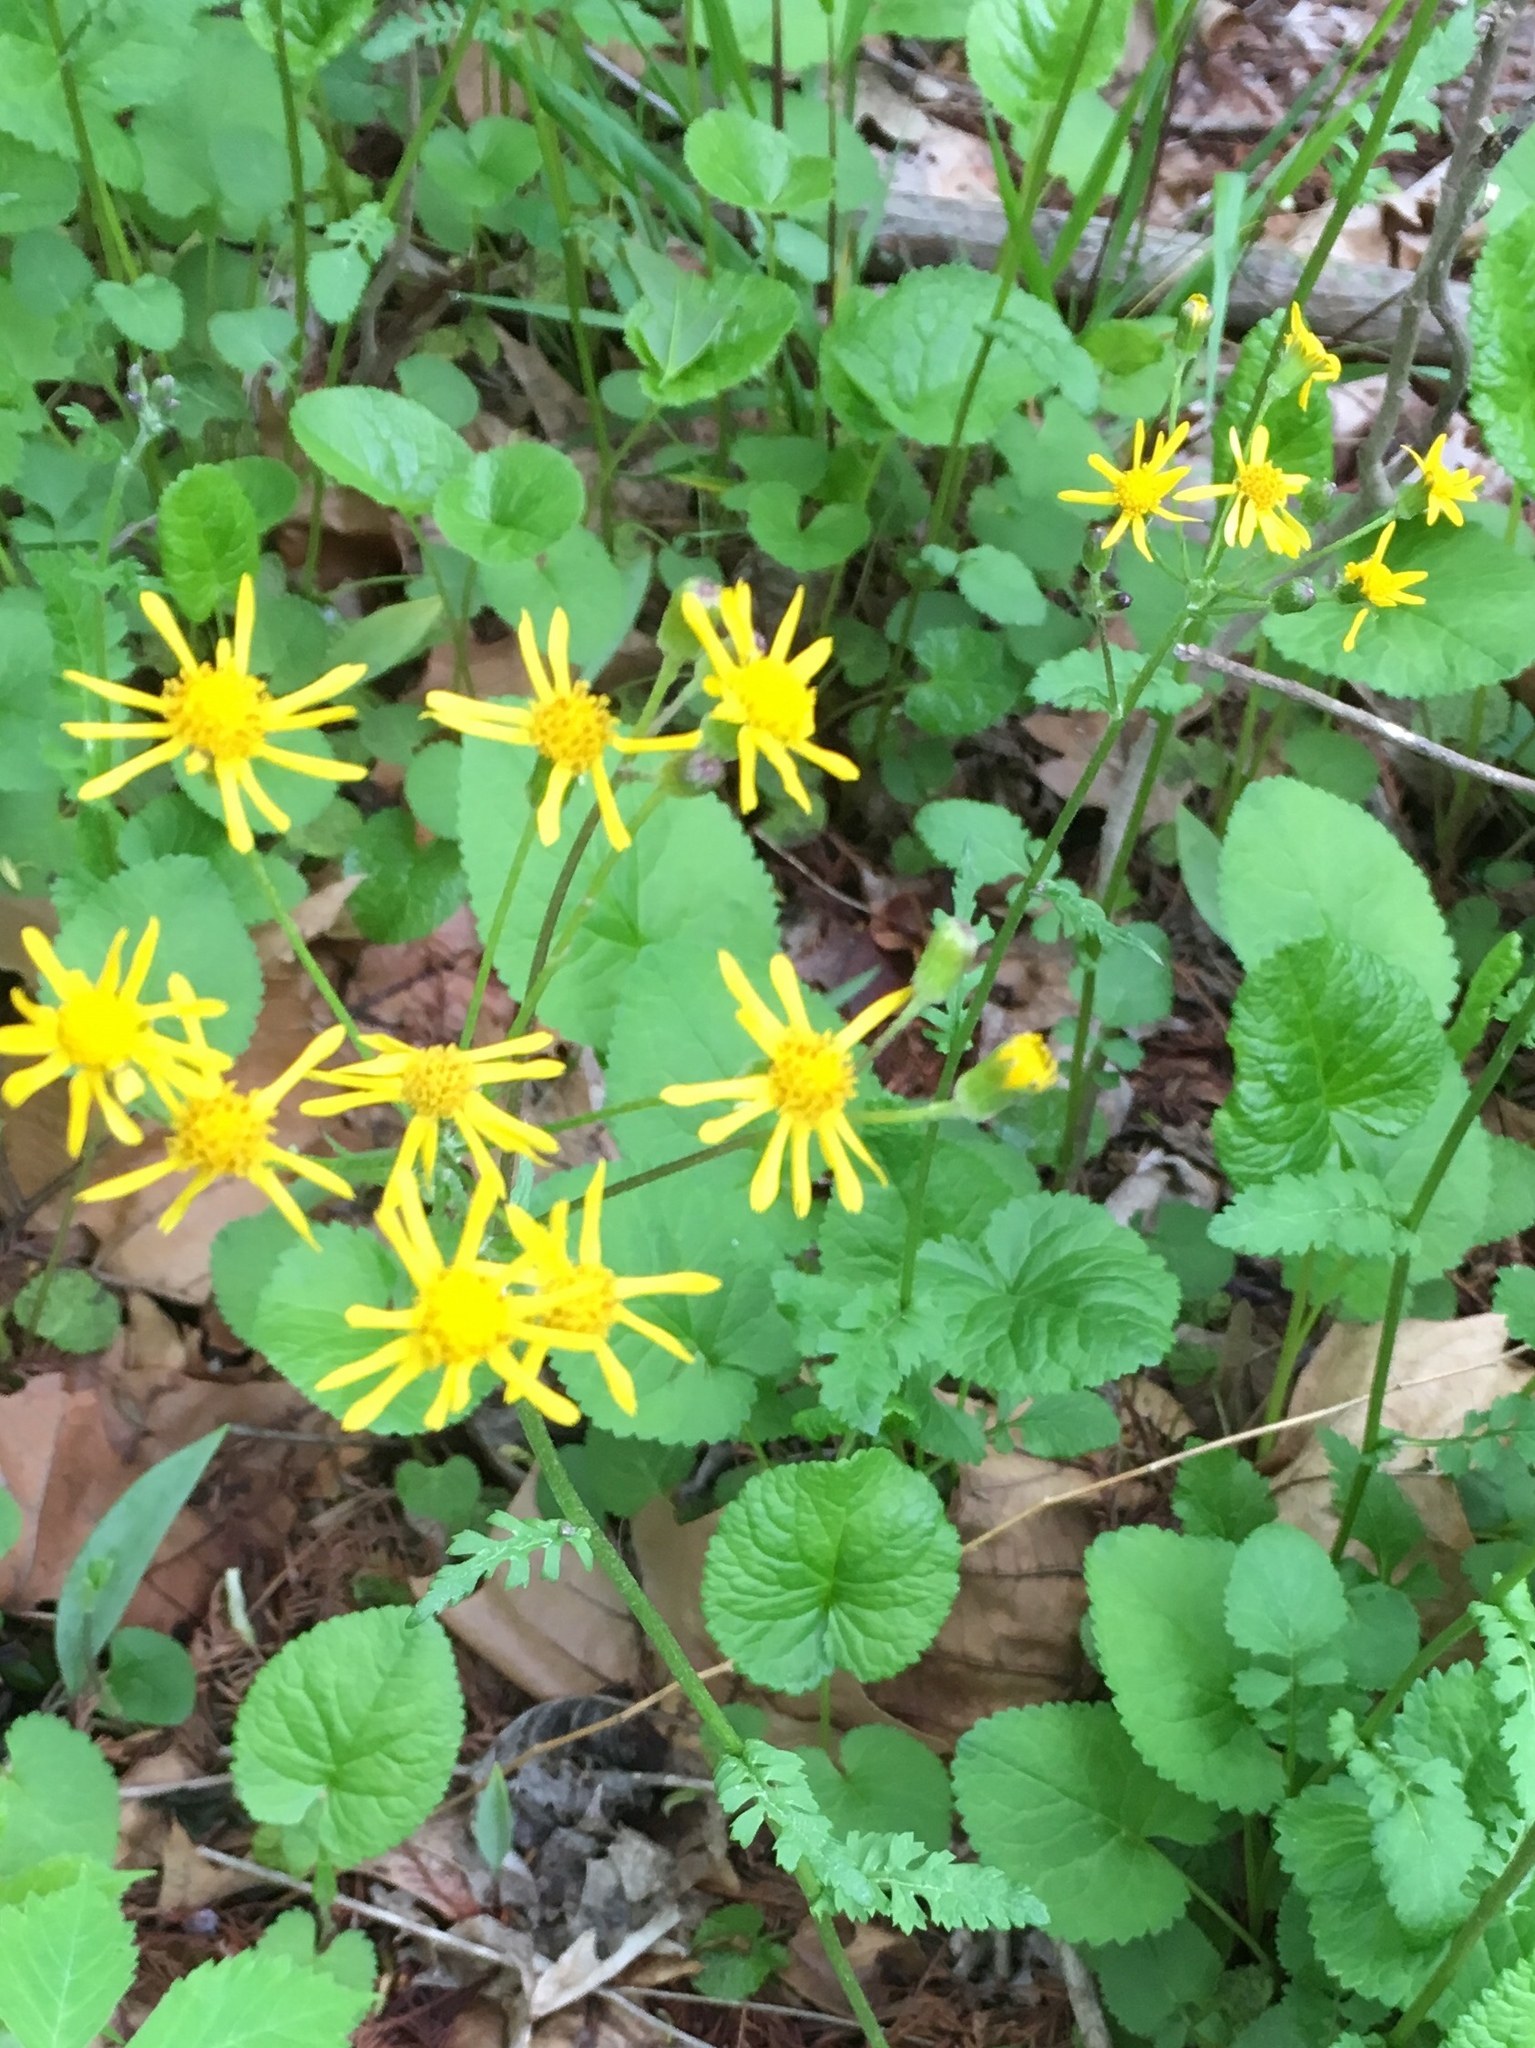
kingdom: Plantae
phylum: Tracheophyta
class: Magnoliopsida
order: Asterales
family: Asteraceae
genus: Packera
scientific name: Packera aurea
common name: Golden groundsel
